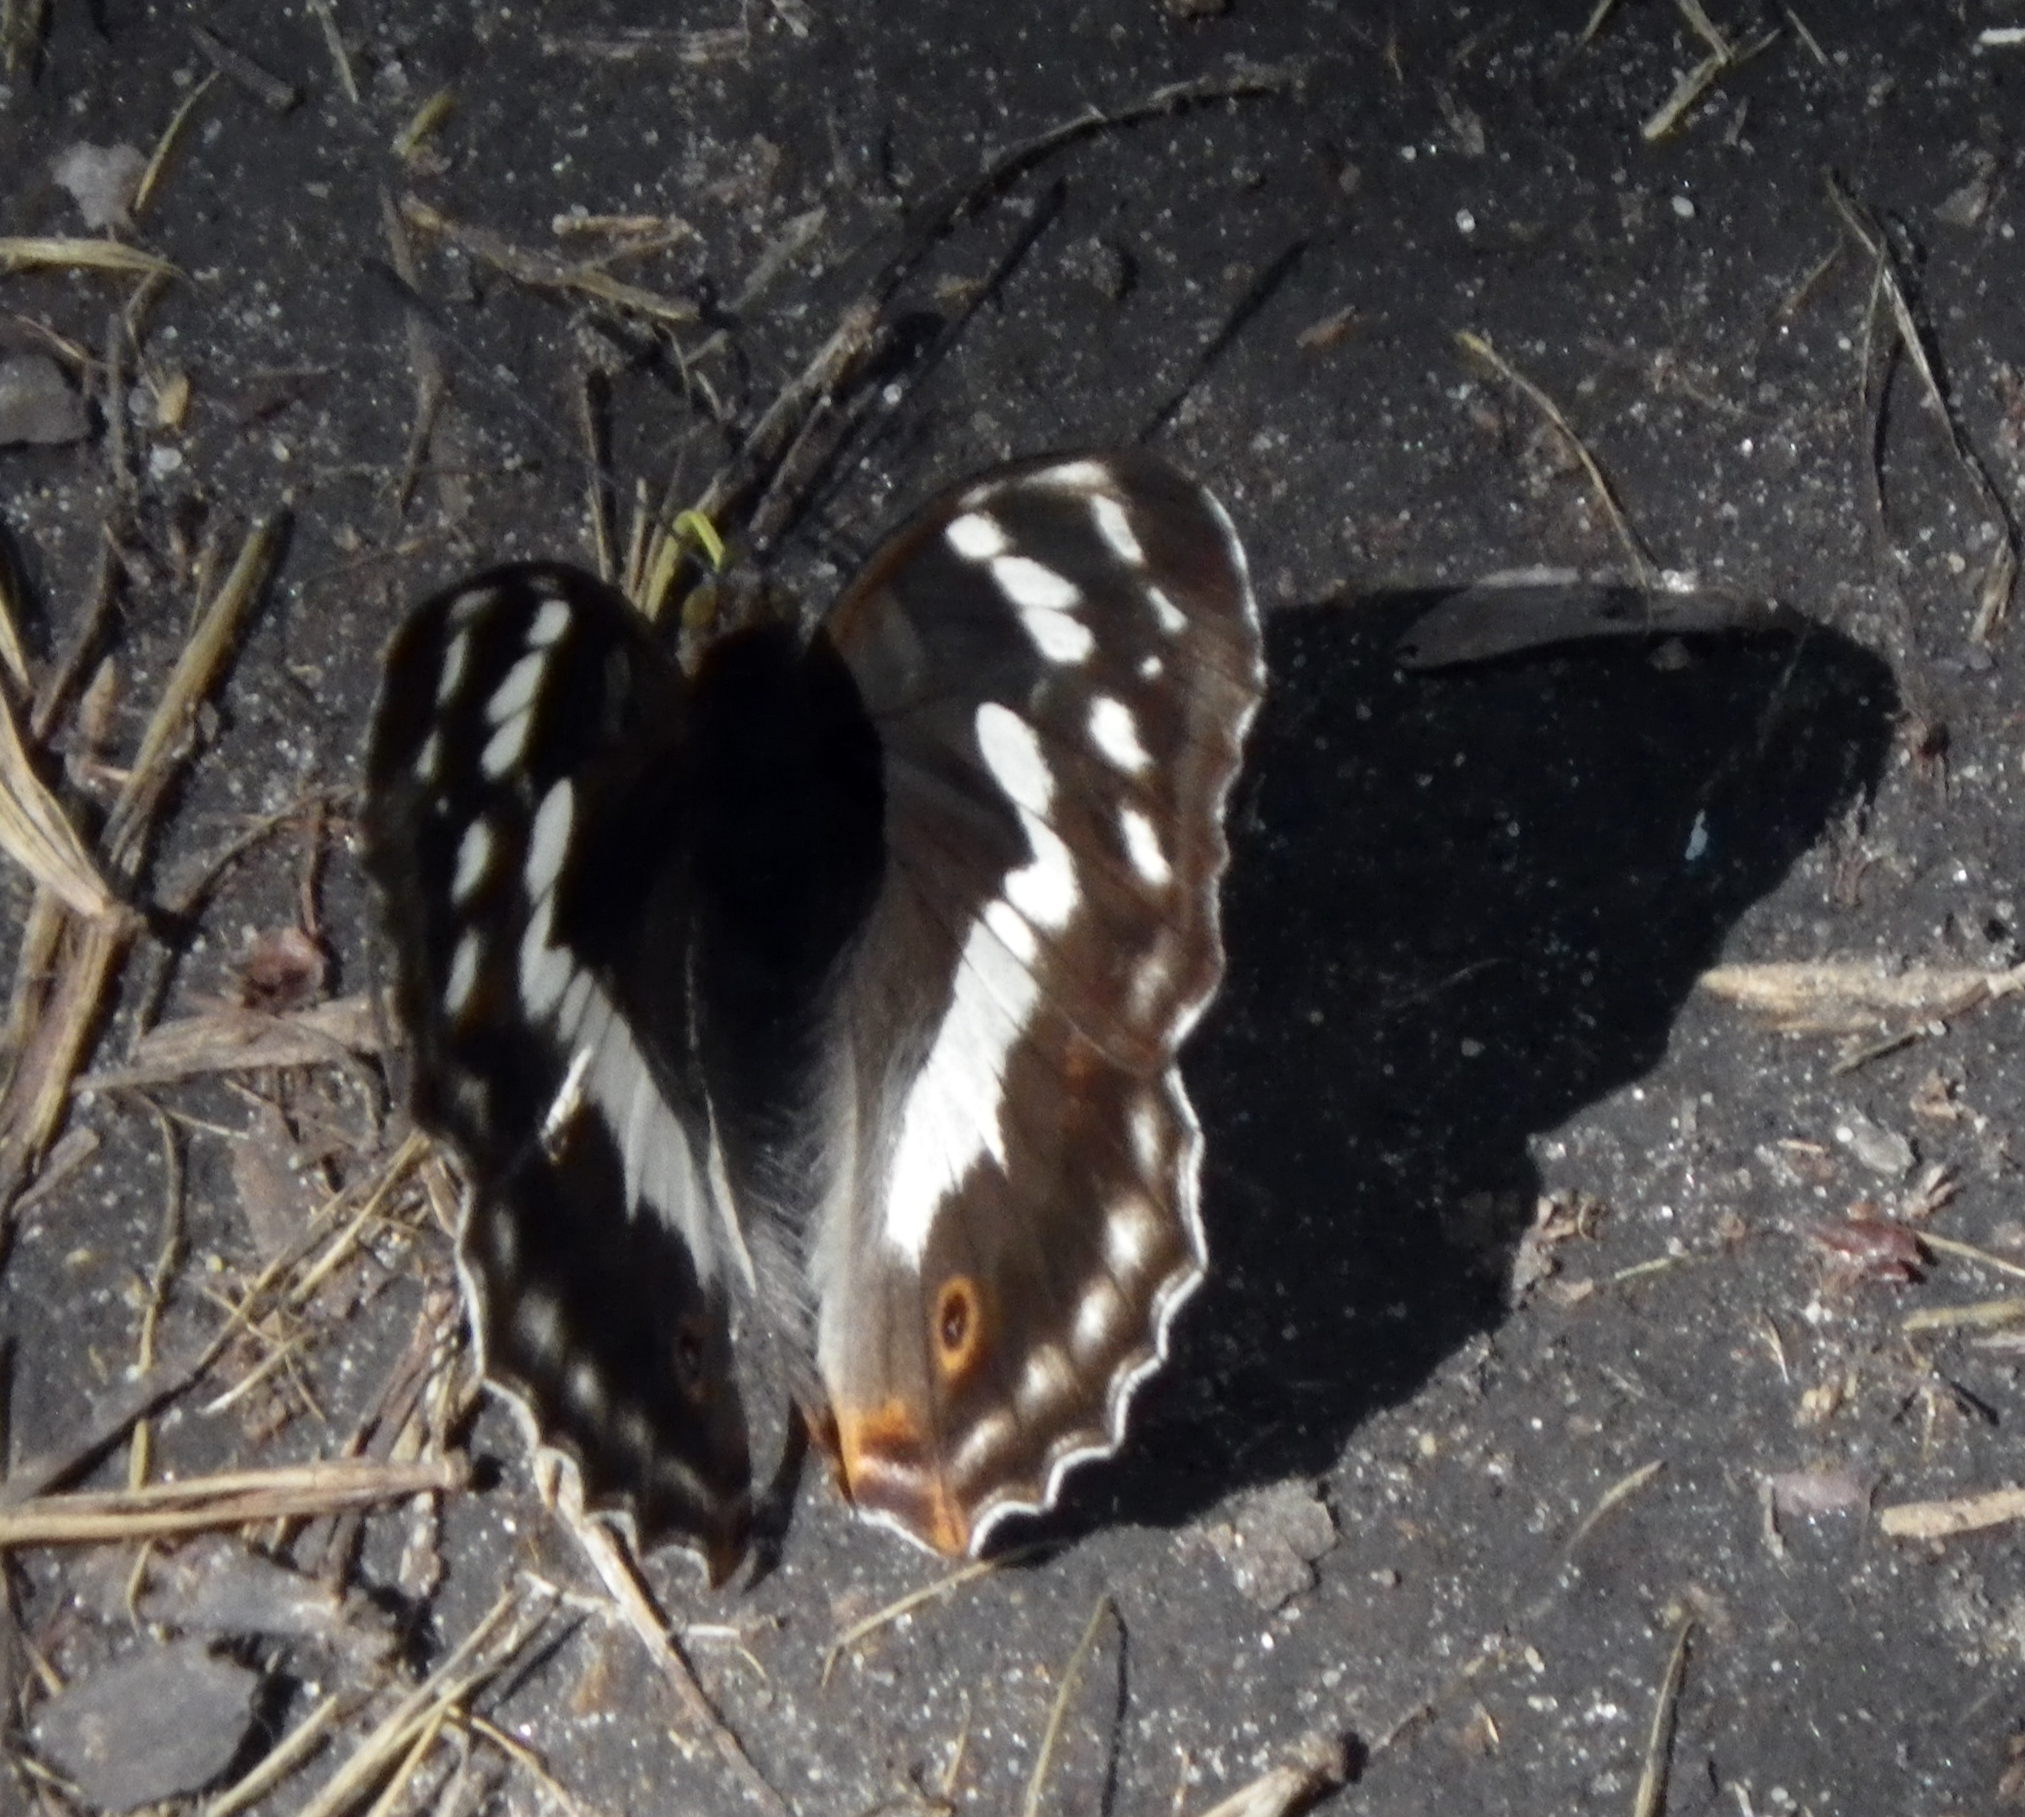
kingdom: Animalia
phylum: Arthropoda
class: Insecta
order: Lepidoptera
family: Nymphalidae
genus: Apatura
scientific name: Apatura iris
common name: Purple emperor
